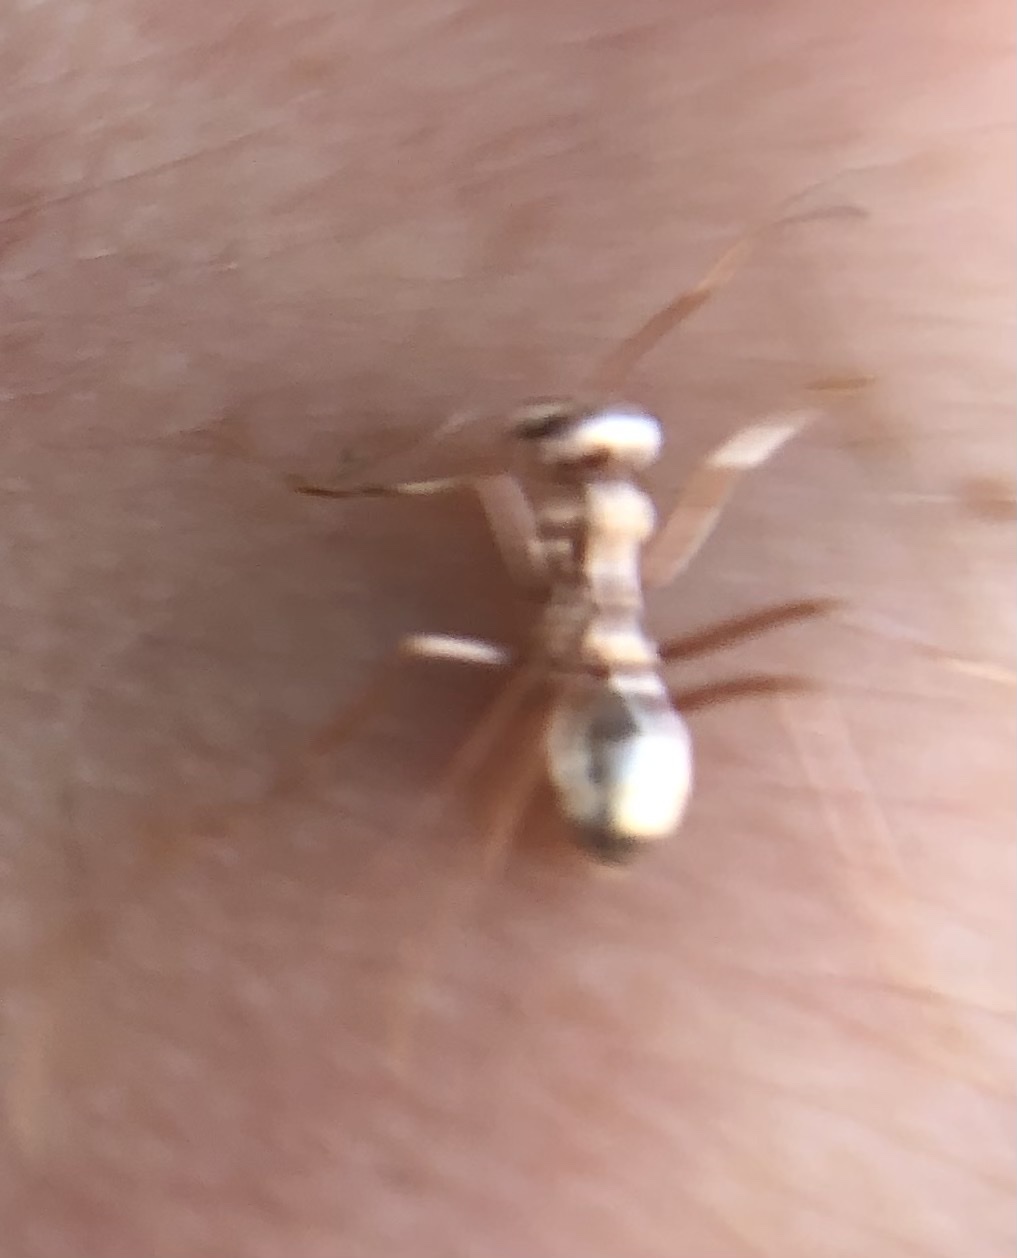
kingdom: Animalia
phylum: Arthropoda
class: Insecta
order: Hymenoptera
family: Formicidae
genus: Cataglyphis
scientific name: Cataglyphis bombycinus
